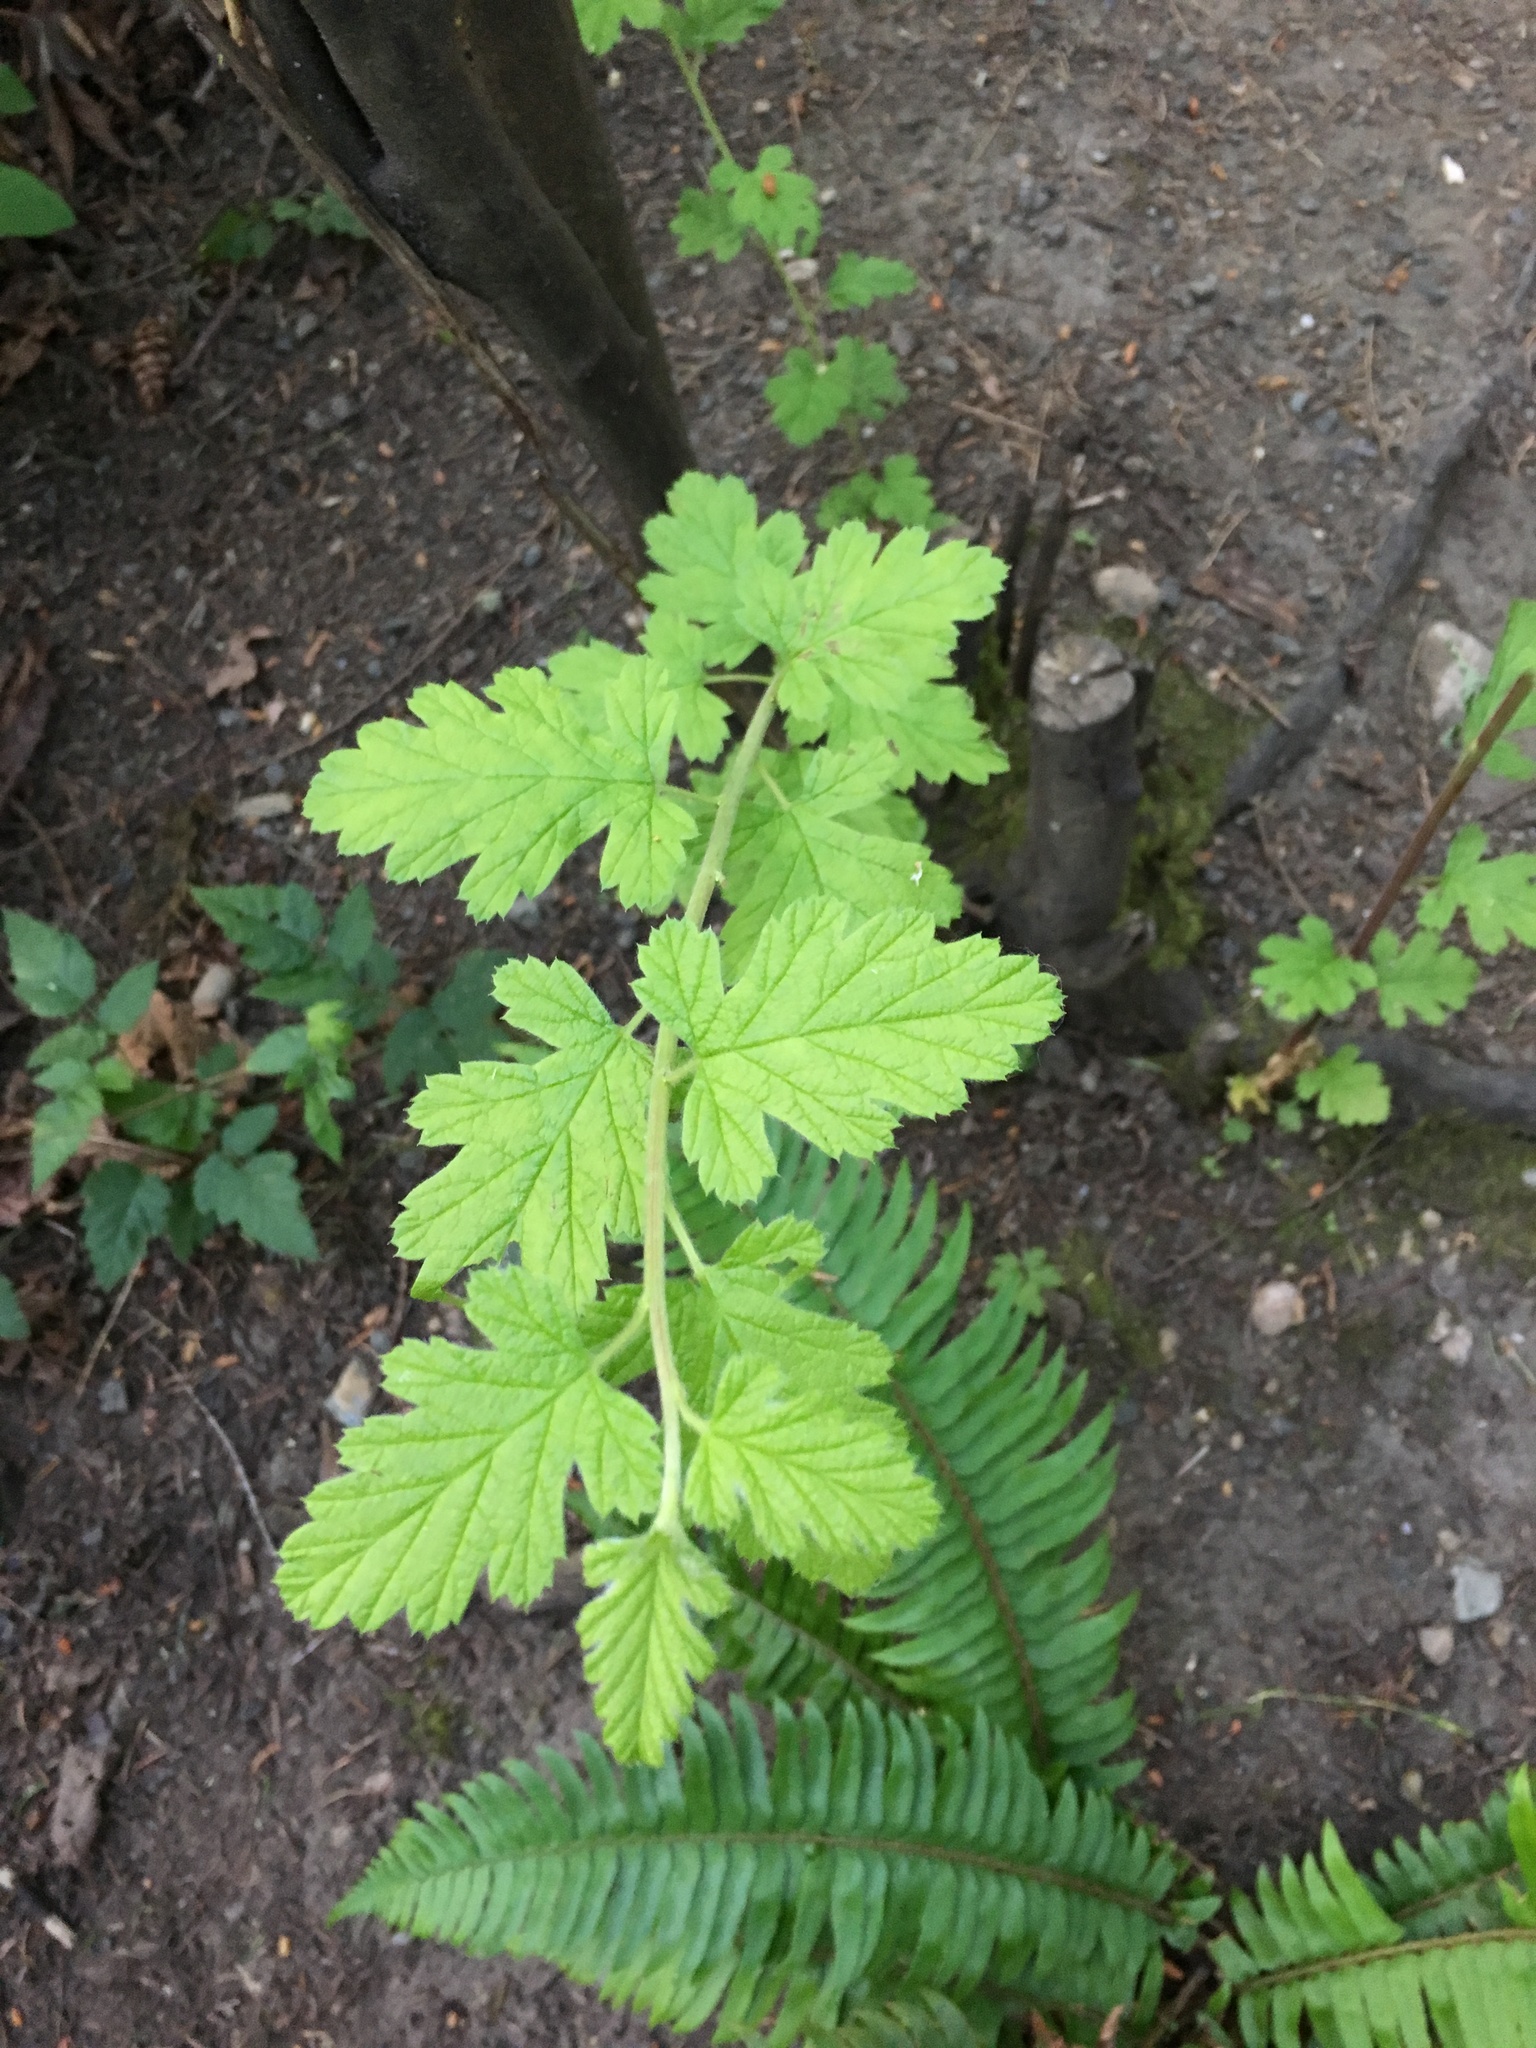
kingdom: Plantae
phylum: Tracheophyta
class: Magnoliopsida
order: Rosales
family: Rosaceae
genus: Holodiscus
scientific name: Holodiscus discolor
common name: Oceanspray
